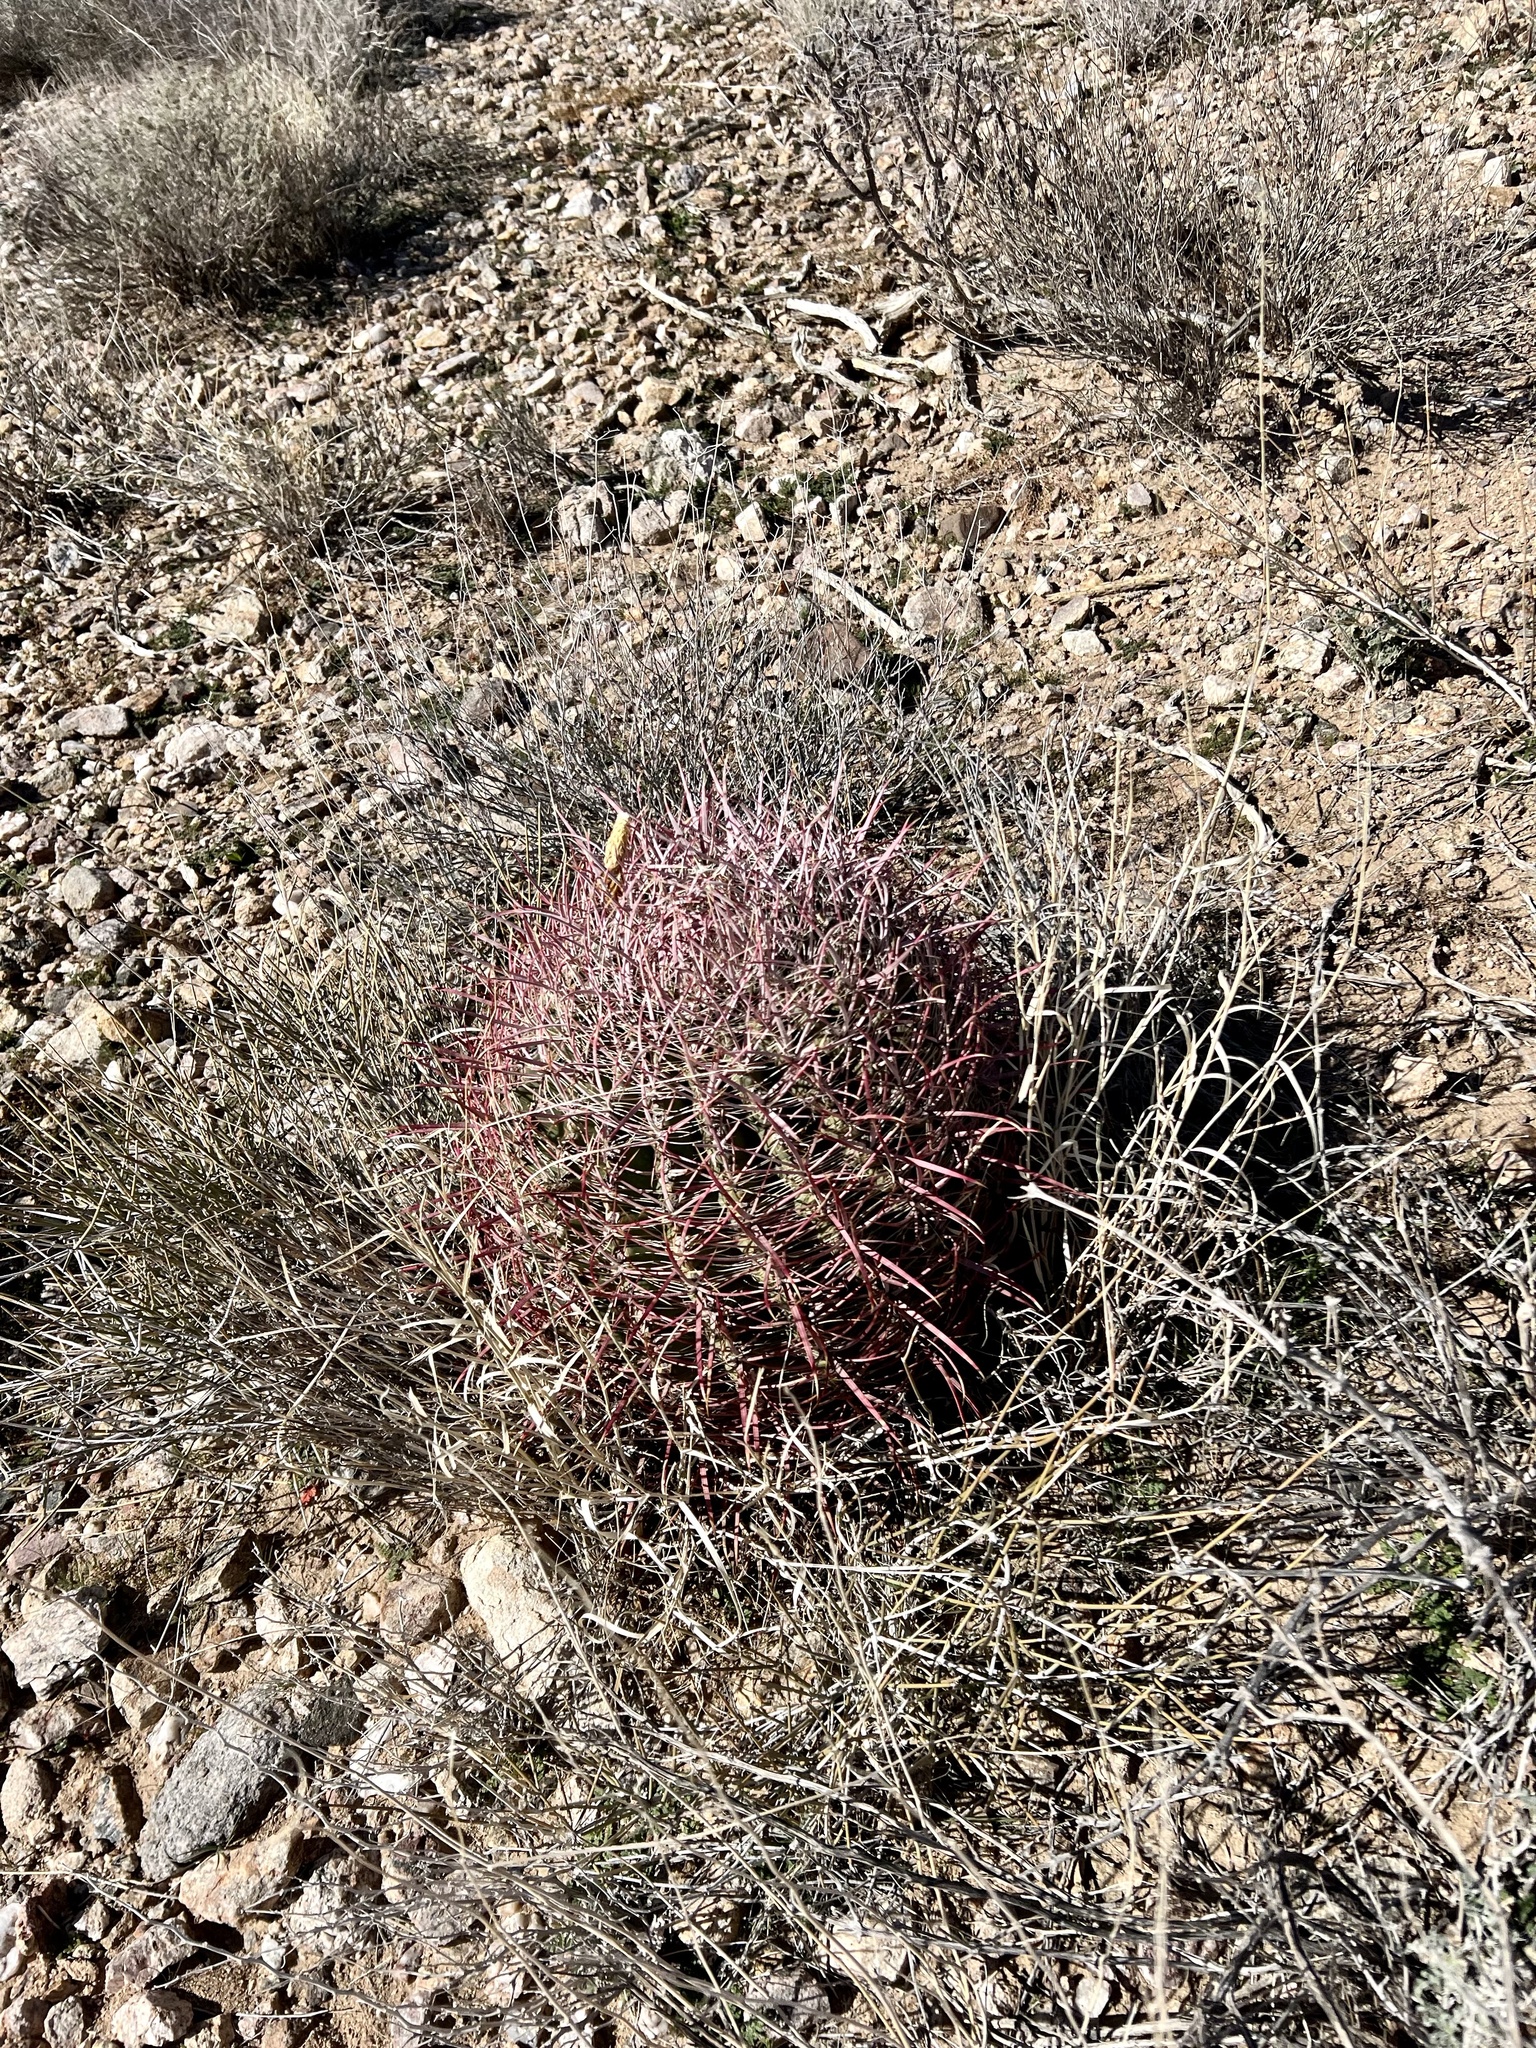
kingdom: Plantae
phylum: Tracheophyta
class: Magnoliopsida
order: Caryophyllales
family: Cactaceae
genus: Ferocactus
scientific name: Ferocactus cylindraceus
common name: California barrel cactus
